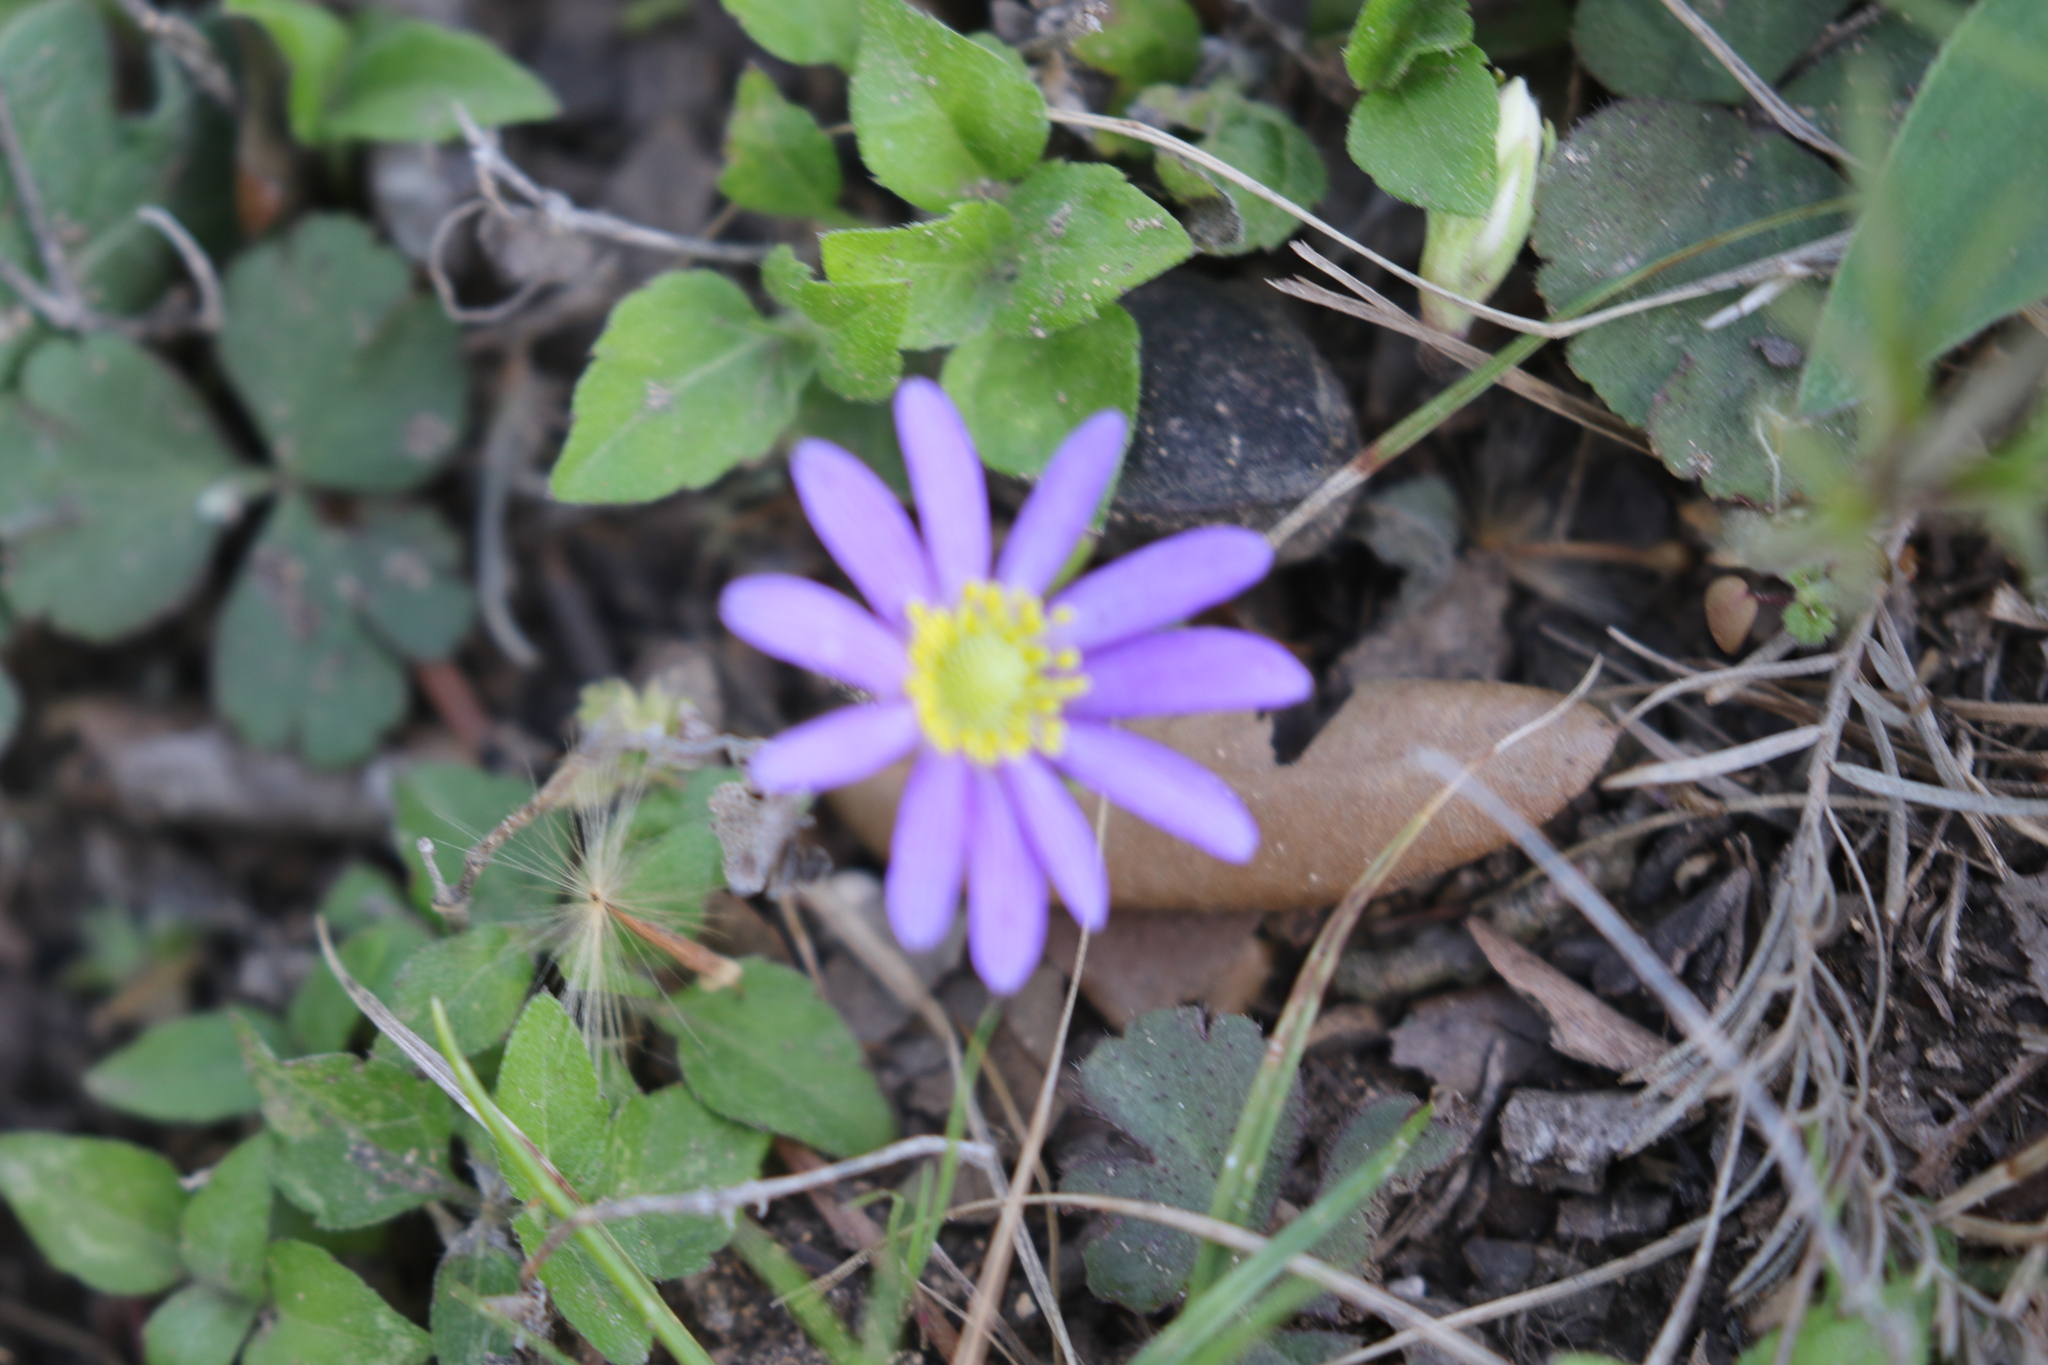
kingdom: Plantae
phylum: Tracheophyta
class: Magnoliopsida
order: Ranunculales
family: Ranunculaceae
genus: Anemone
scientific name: Anemone berlandieri
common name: Ten-petal anemone
